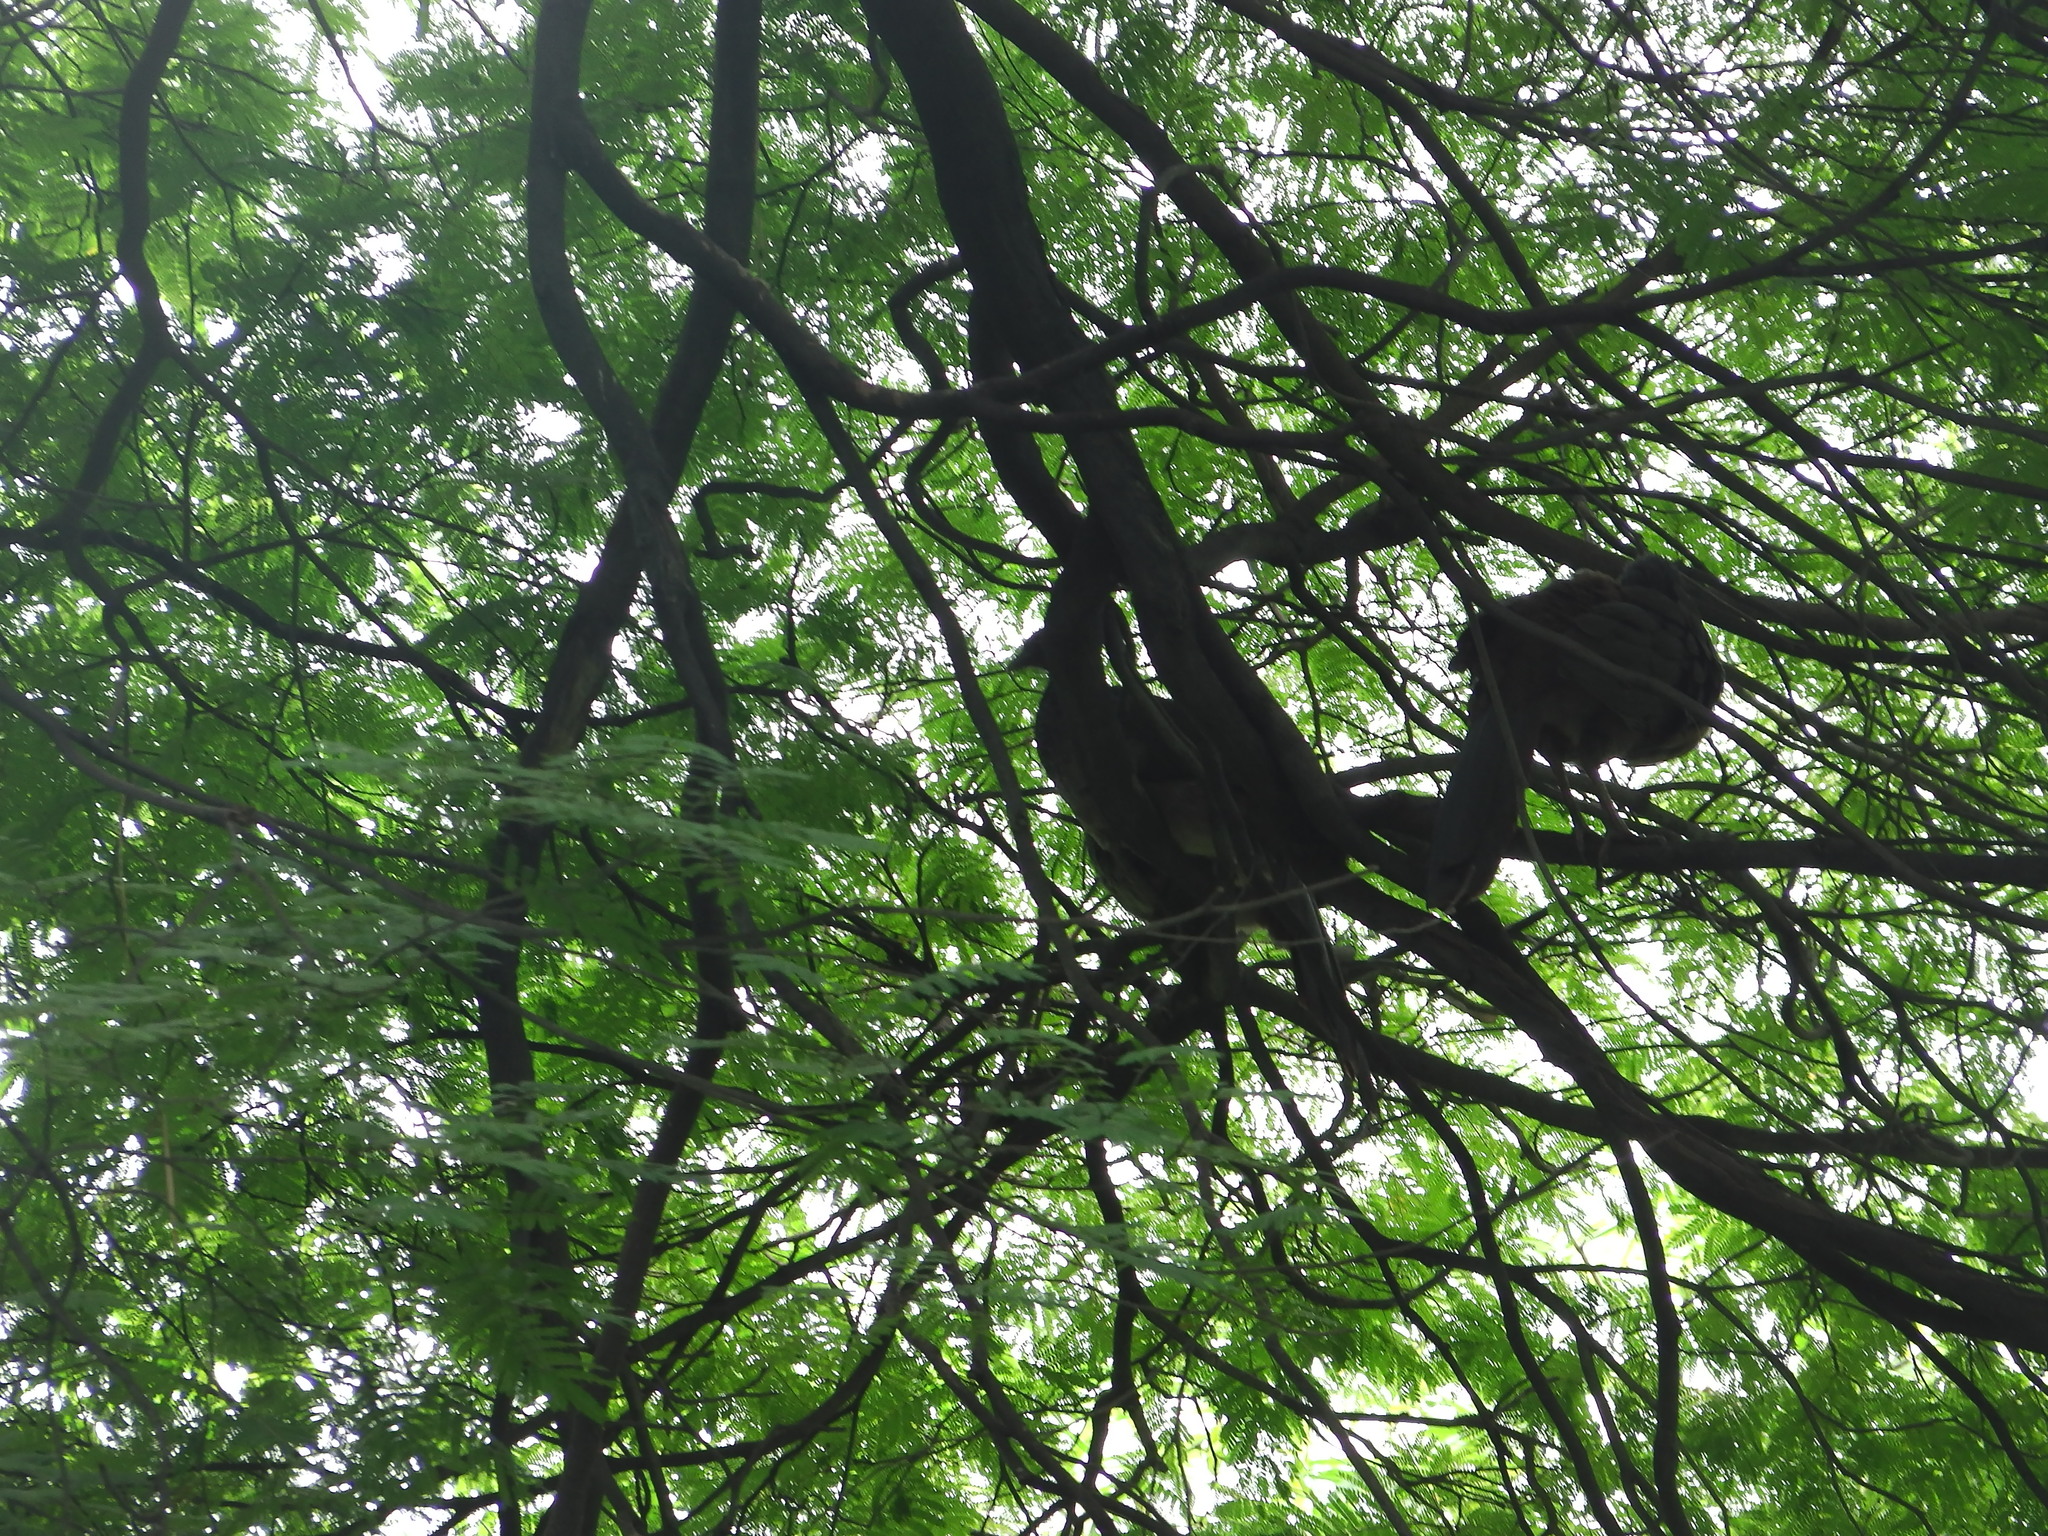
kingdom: Animalia
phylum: Chordata
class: Aves
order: Galliformes
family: Cracidae
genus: Ortalis
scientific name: Ortalis columbiana
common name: Colombian chachalaca
